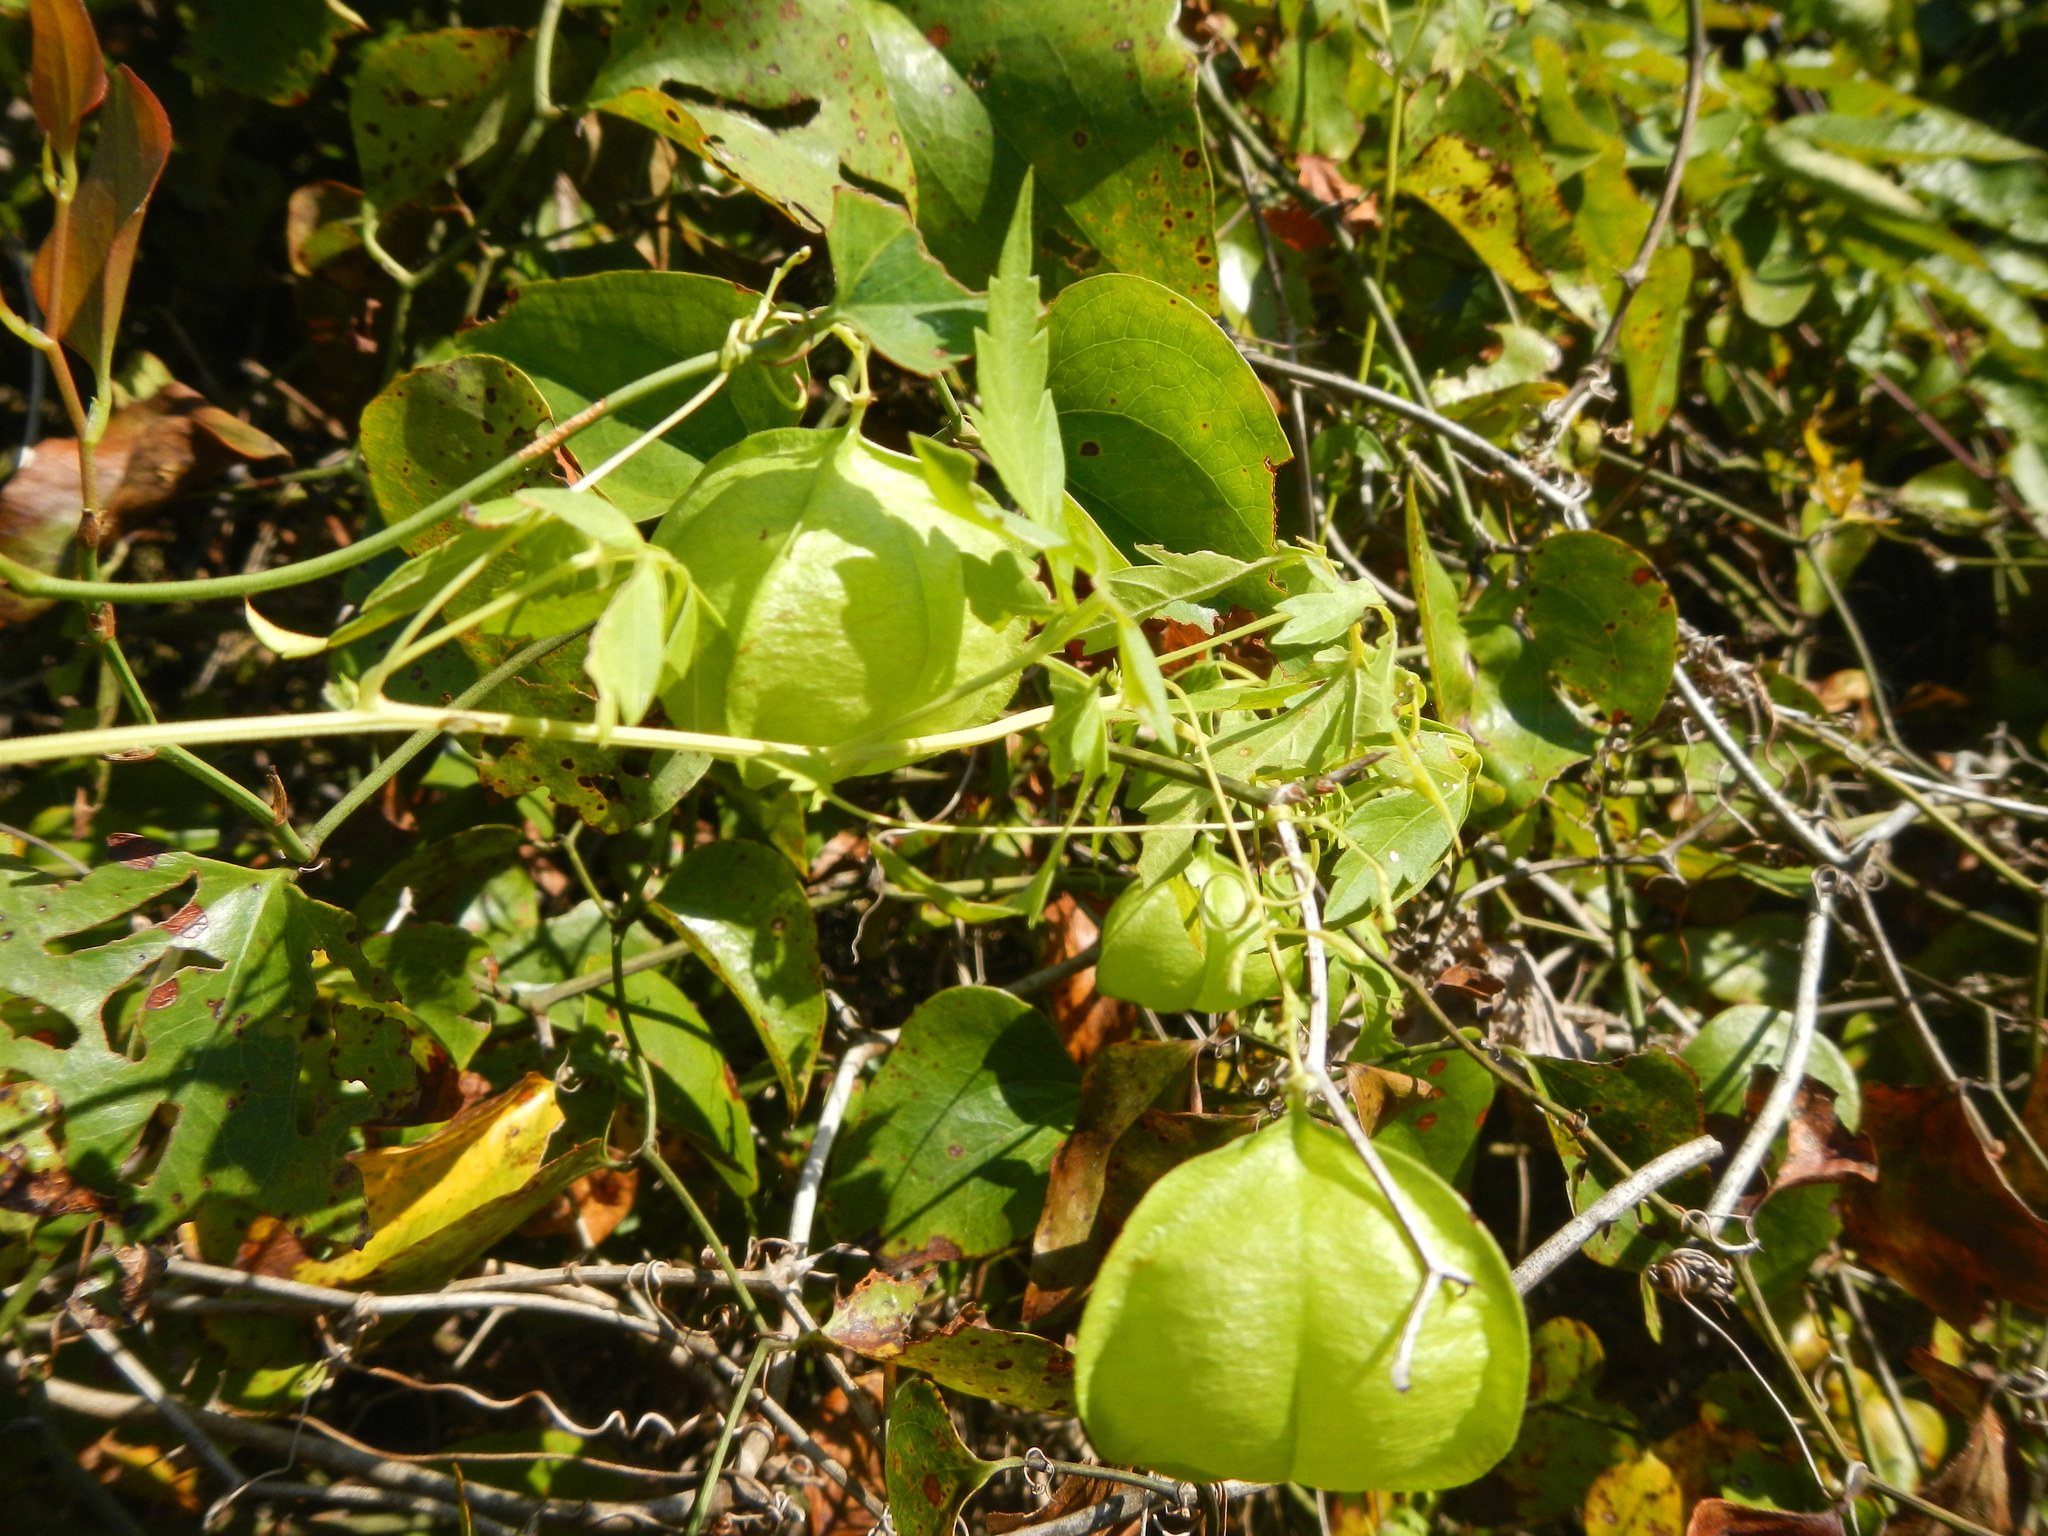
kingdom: Plantae
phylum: Tracheophyta
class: Magnoliopsida
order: Sapindales
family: Sapindaceae
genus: Cardiospermum
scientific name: Cardiospermum halicacabum
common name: Balloon vine
